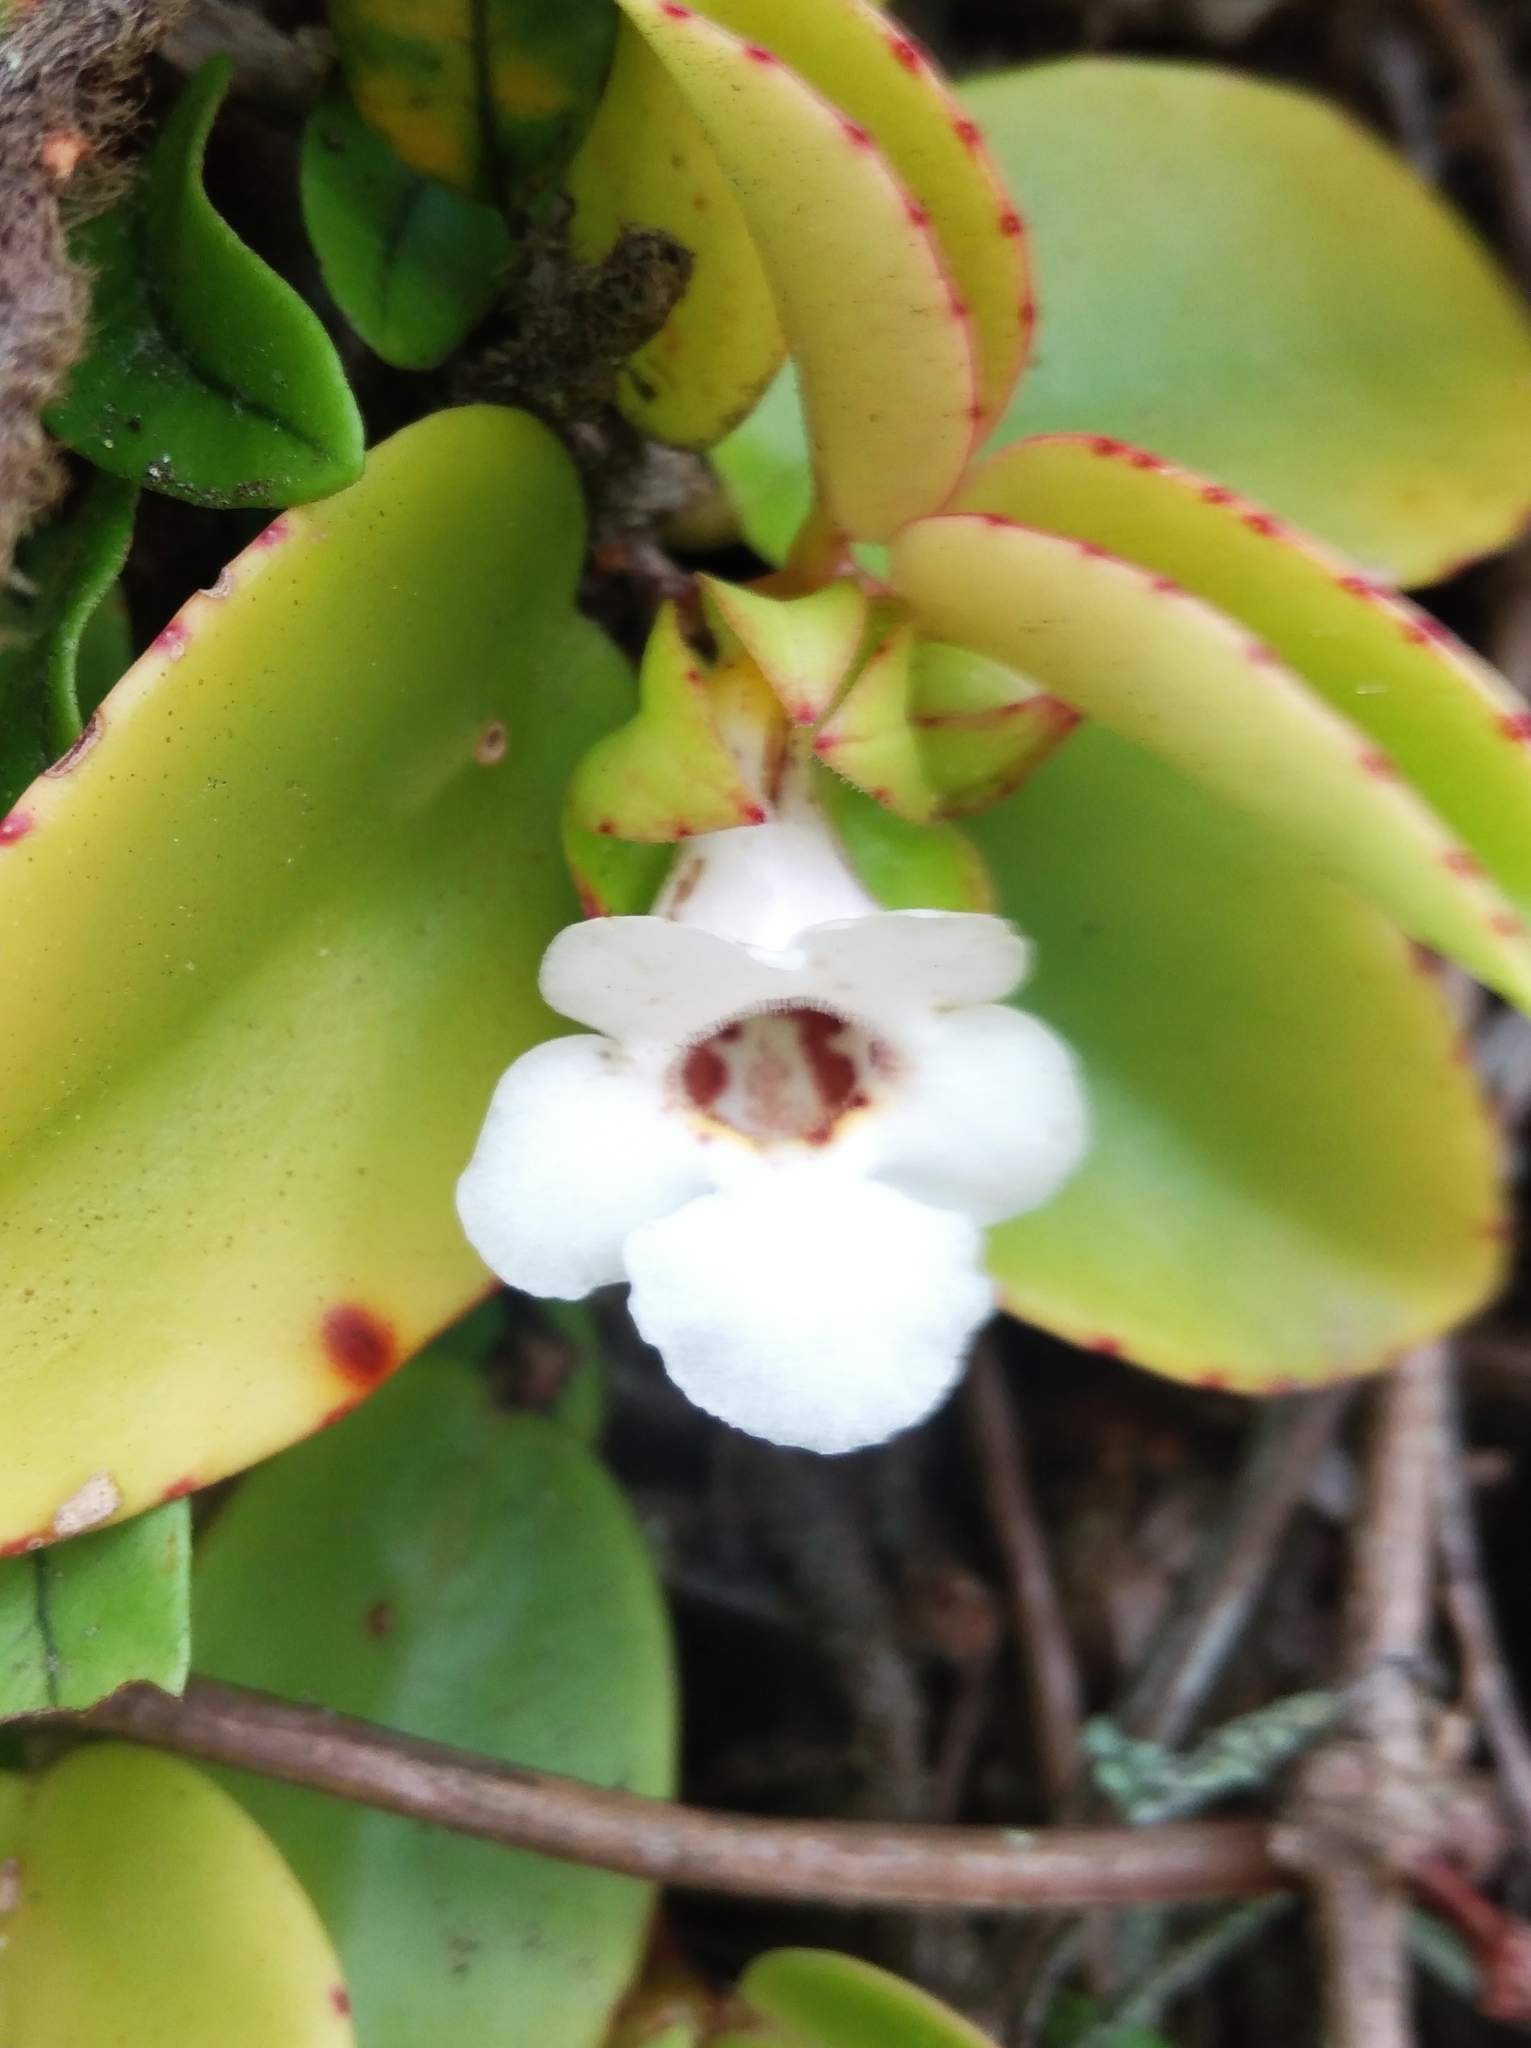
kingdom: Plantae
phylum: Tracheophyta
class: Magnoliopsida
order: Lamiales
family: Gesneriaceae
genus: Codonanthe
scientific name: Codonanthe gracilis
